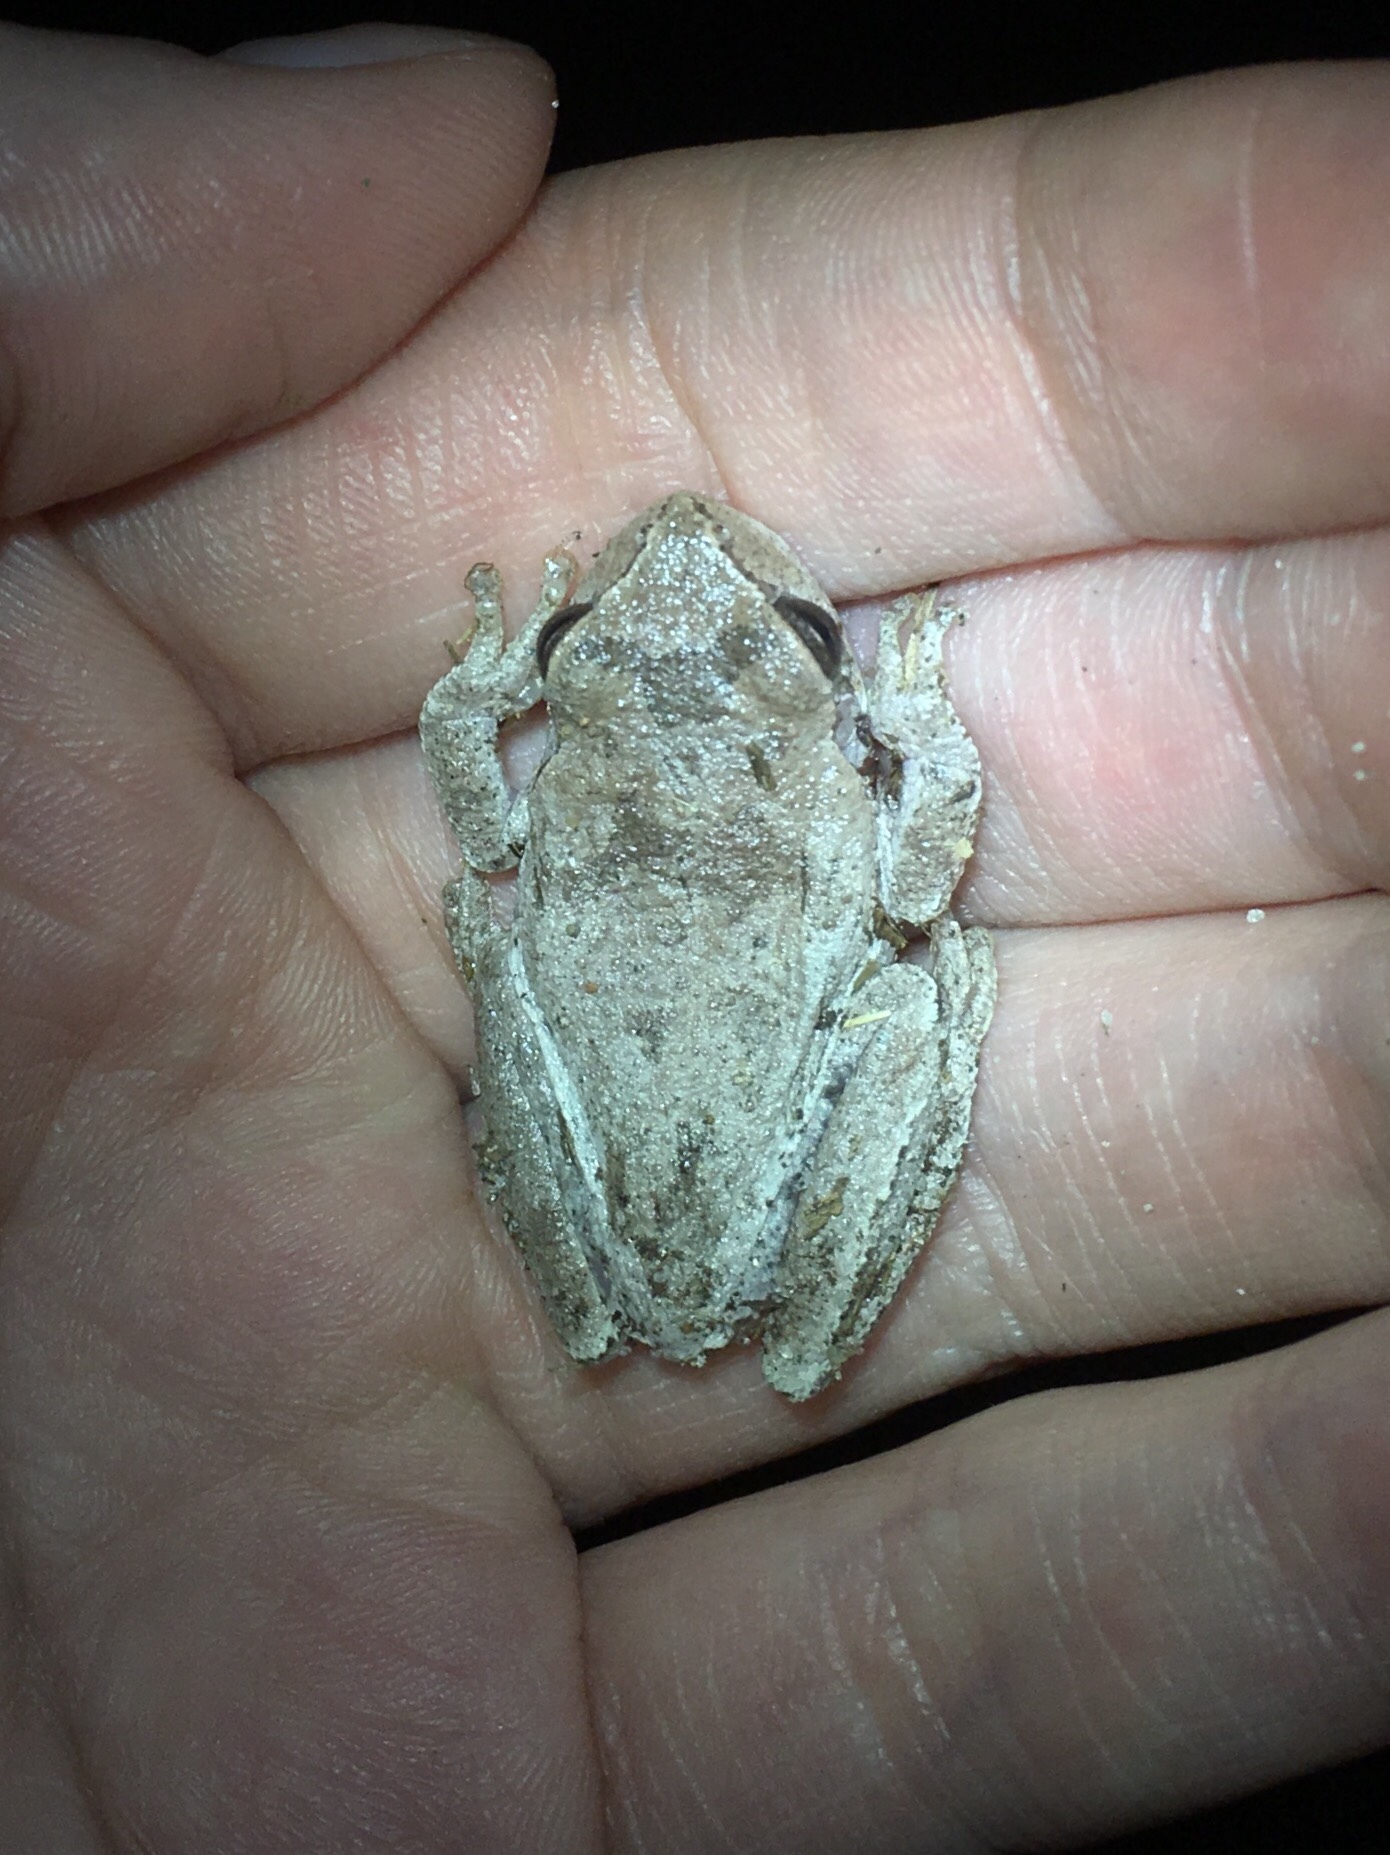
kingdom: Animalia
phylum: Chordata
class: Amphibia
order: Anura
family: Hylidae
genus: Hyla
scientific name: Hyla femoralis
